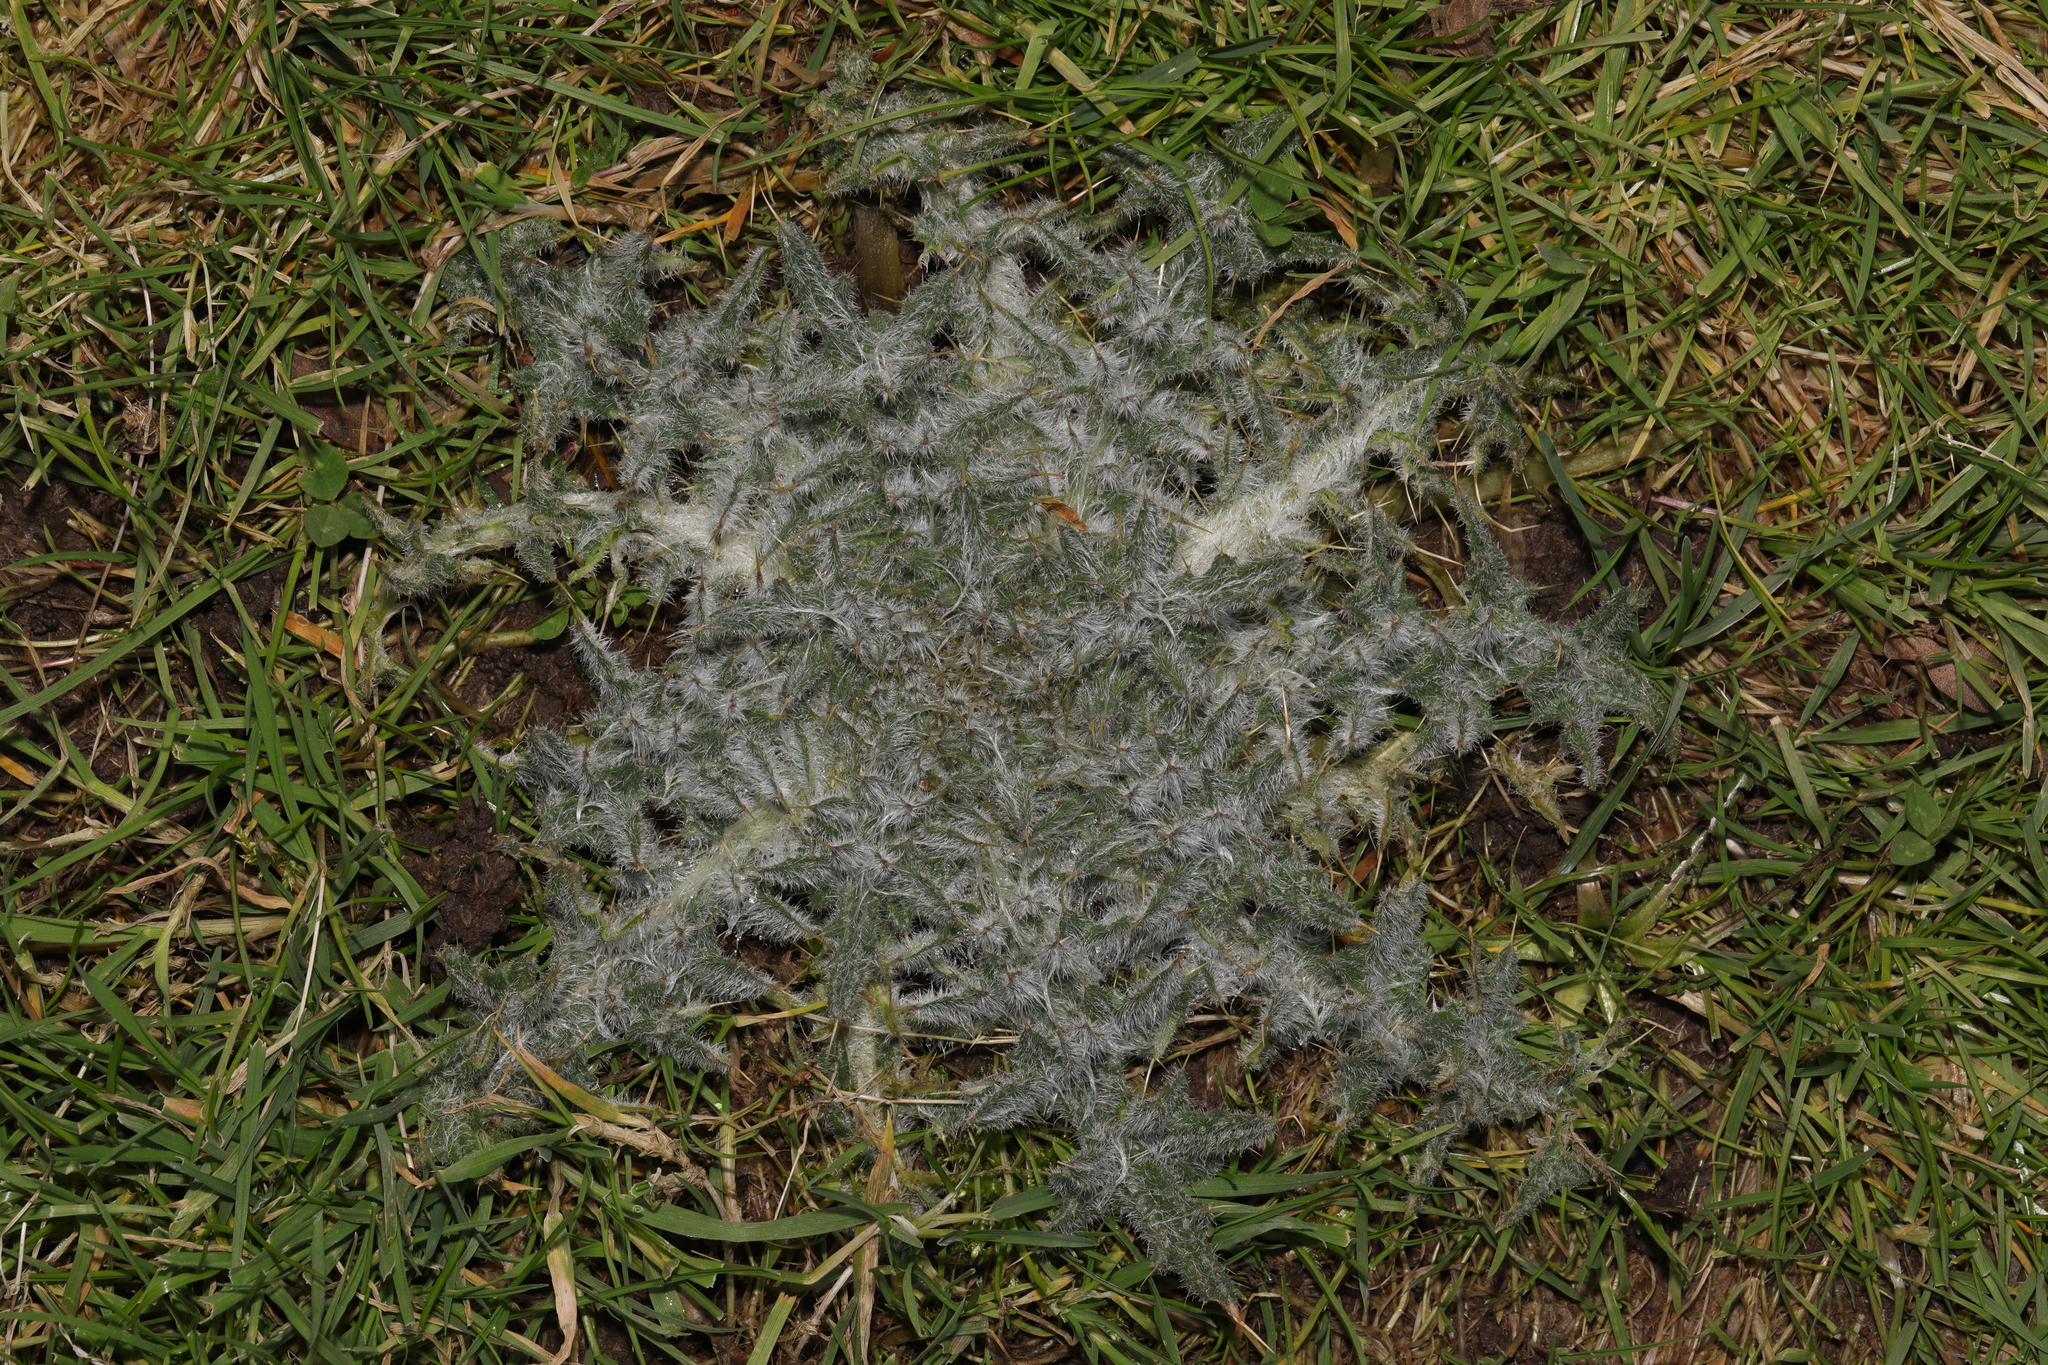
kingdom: Plantae
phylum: Tracheophyta
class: Magnoliopsida
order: Asterales
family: Asteraceae
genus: Cirsium
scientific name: Cirsium vulgare
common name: Bull thistle
